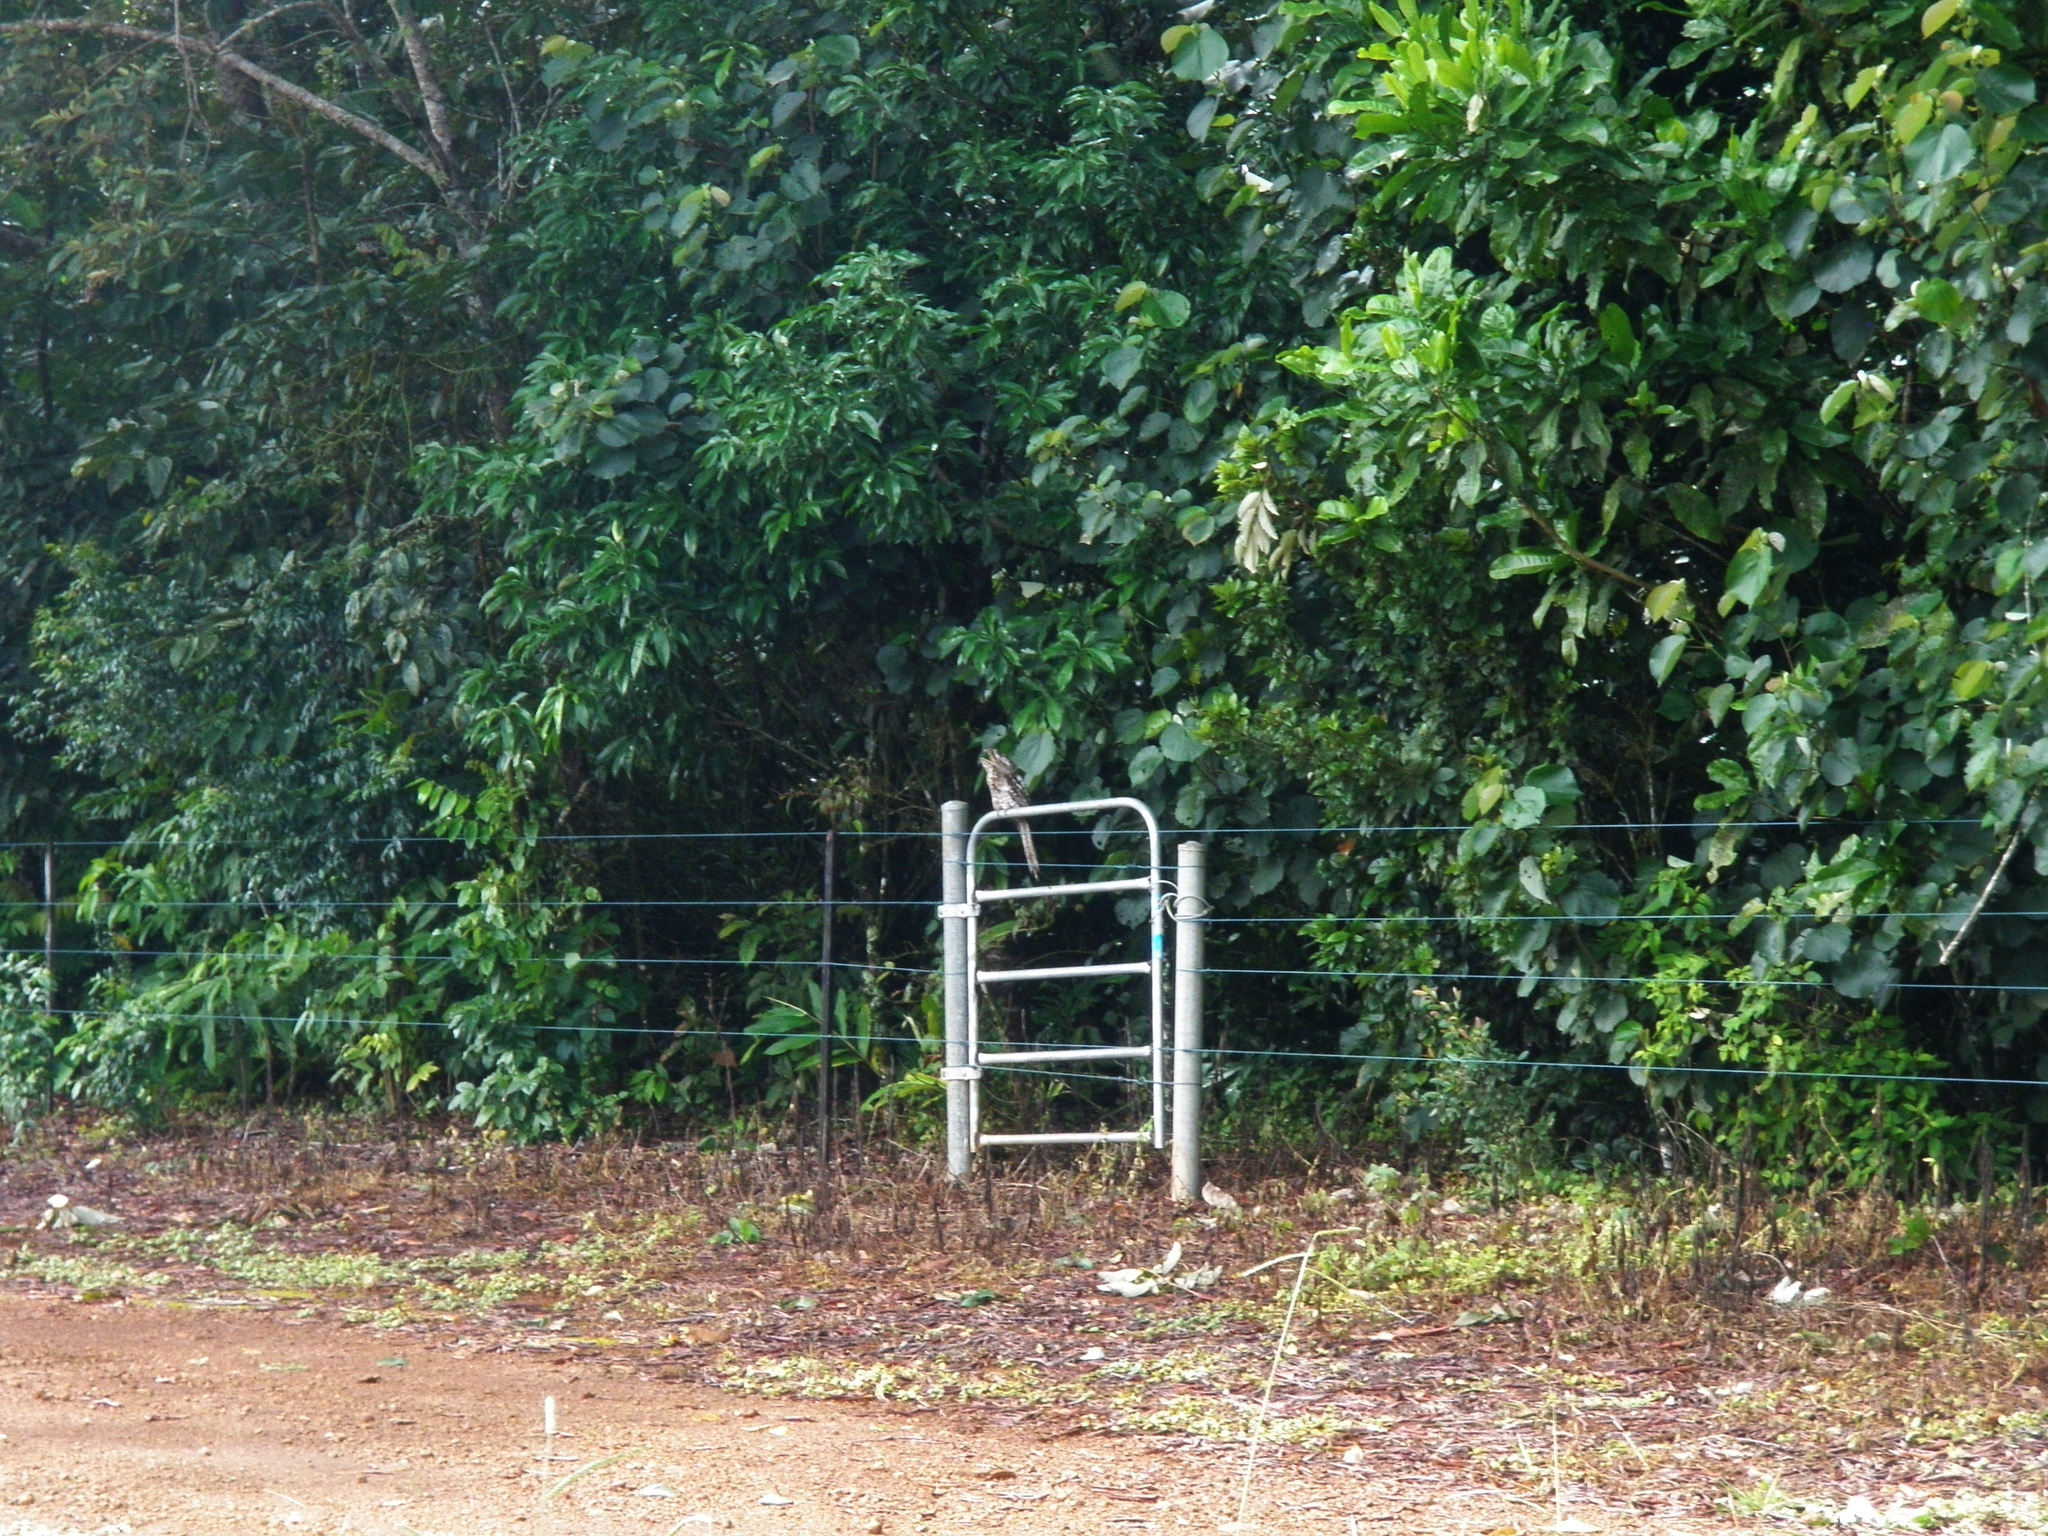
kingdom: Animalia
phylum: Chordata
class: Aves
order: Caprimulgiformes
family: Podargidae
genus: Podargus
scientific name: Podargus strigoides
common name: Tawny frogmouth
